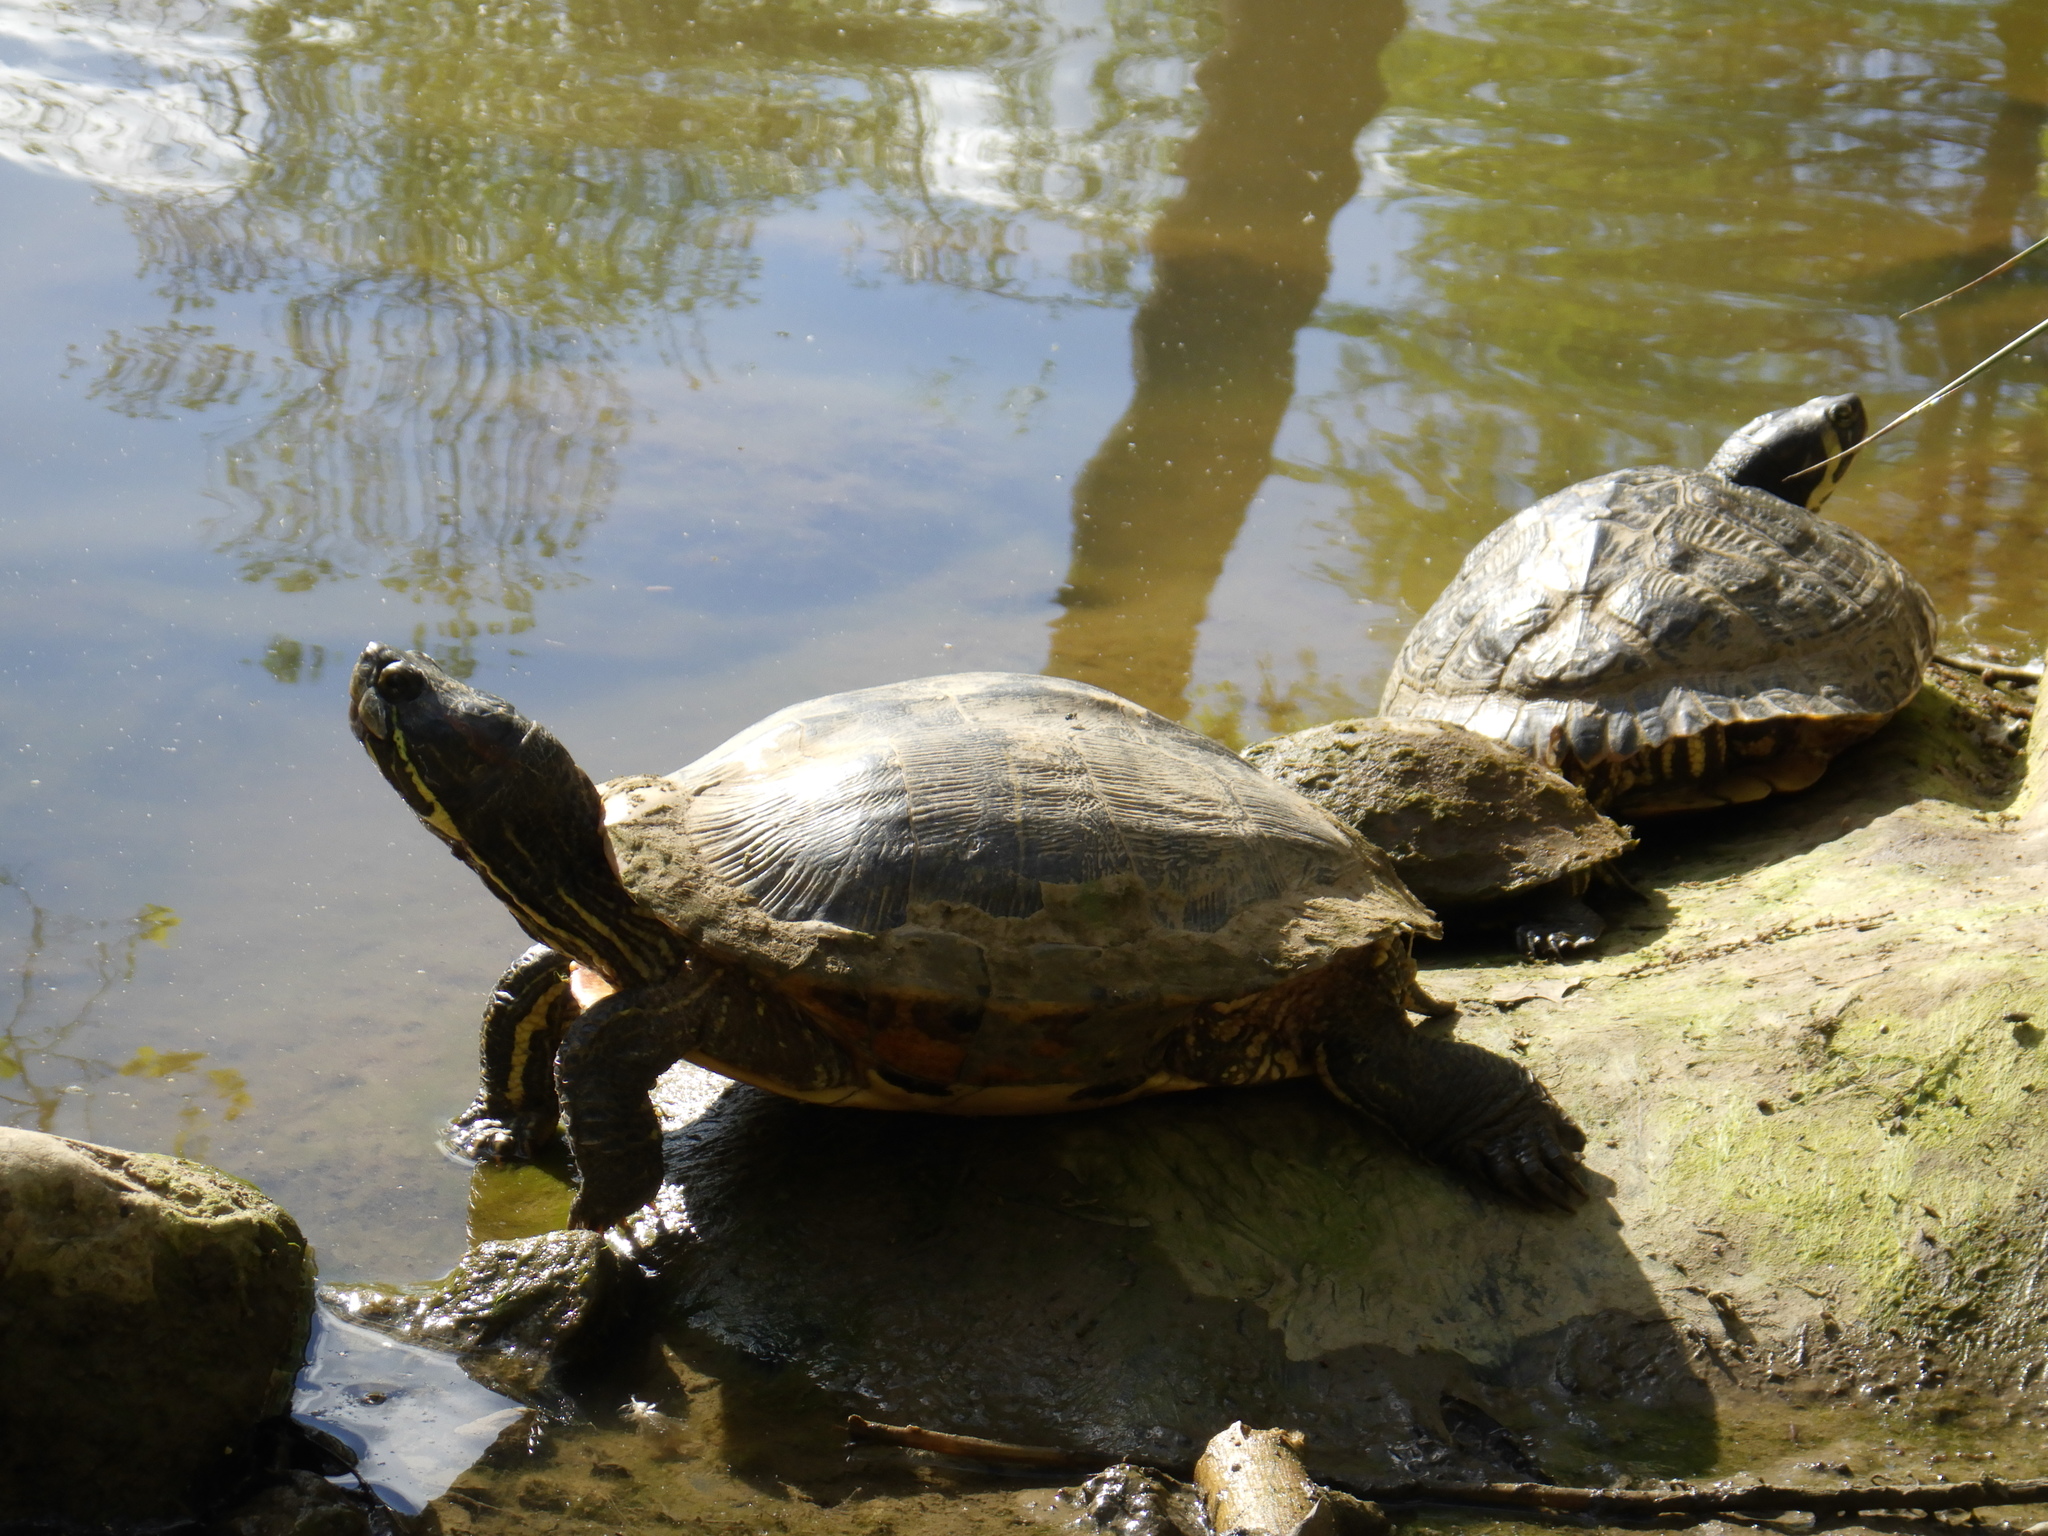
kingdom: Animalia
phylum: Chordata
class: Testudines
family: Emydidae
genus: Trachemys
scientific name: Trachemys scripta
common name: Slider
